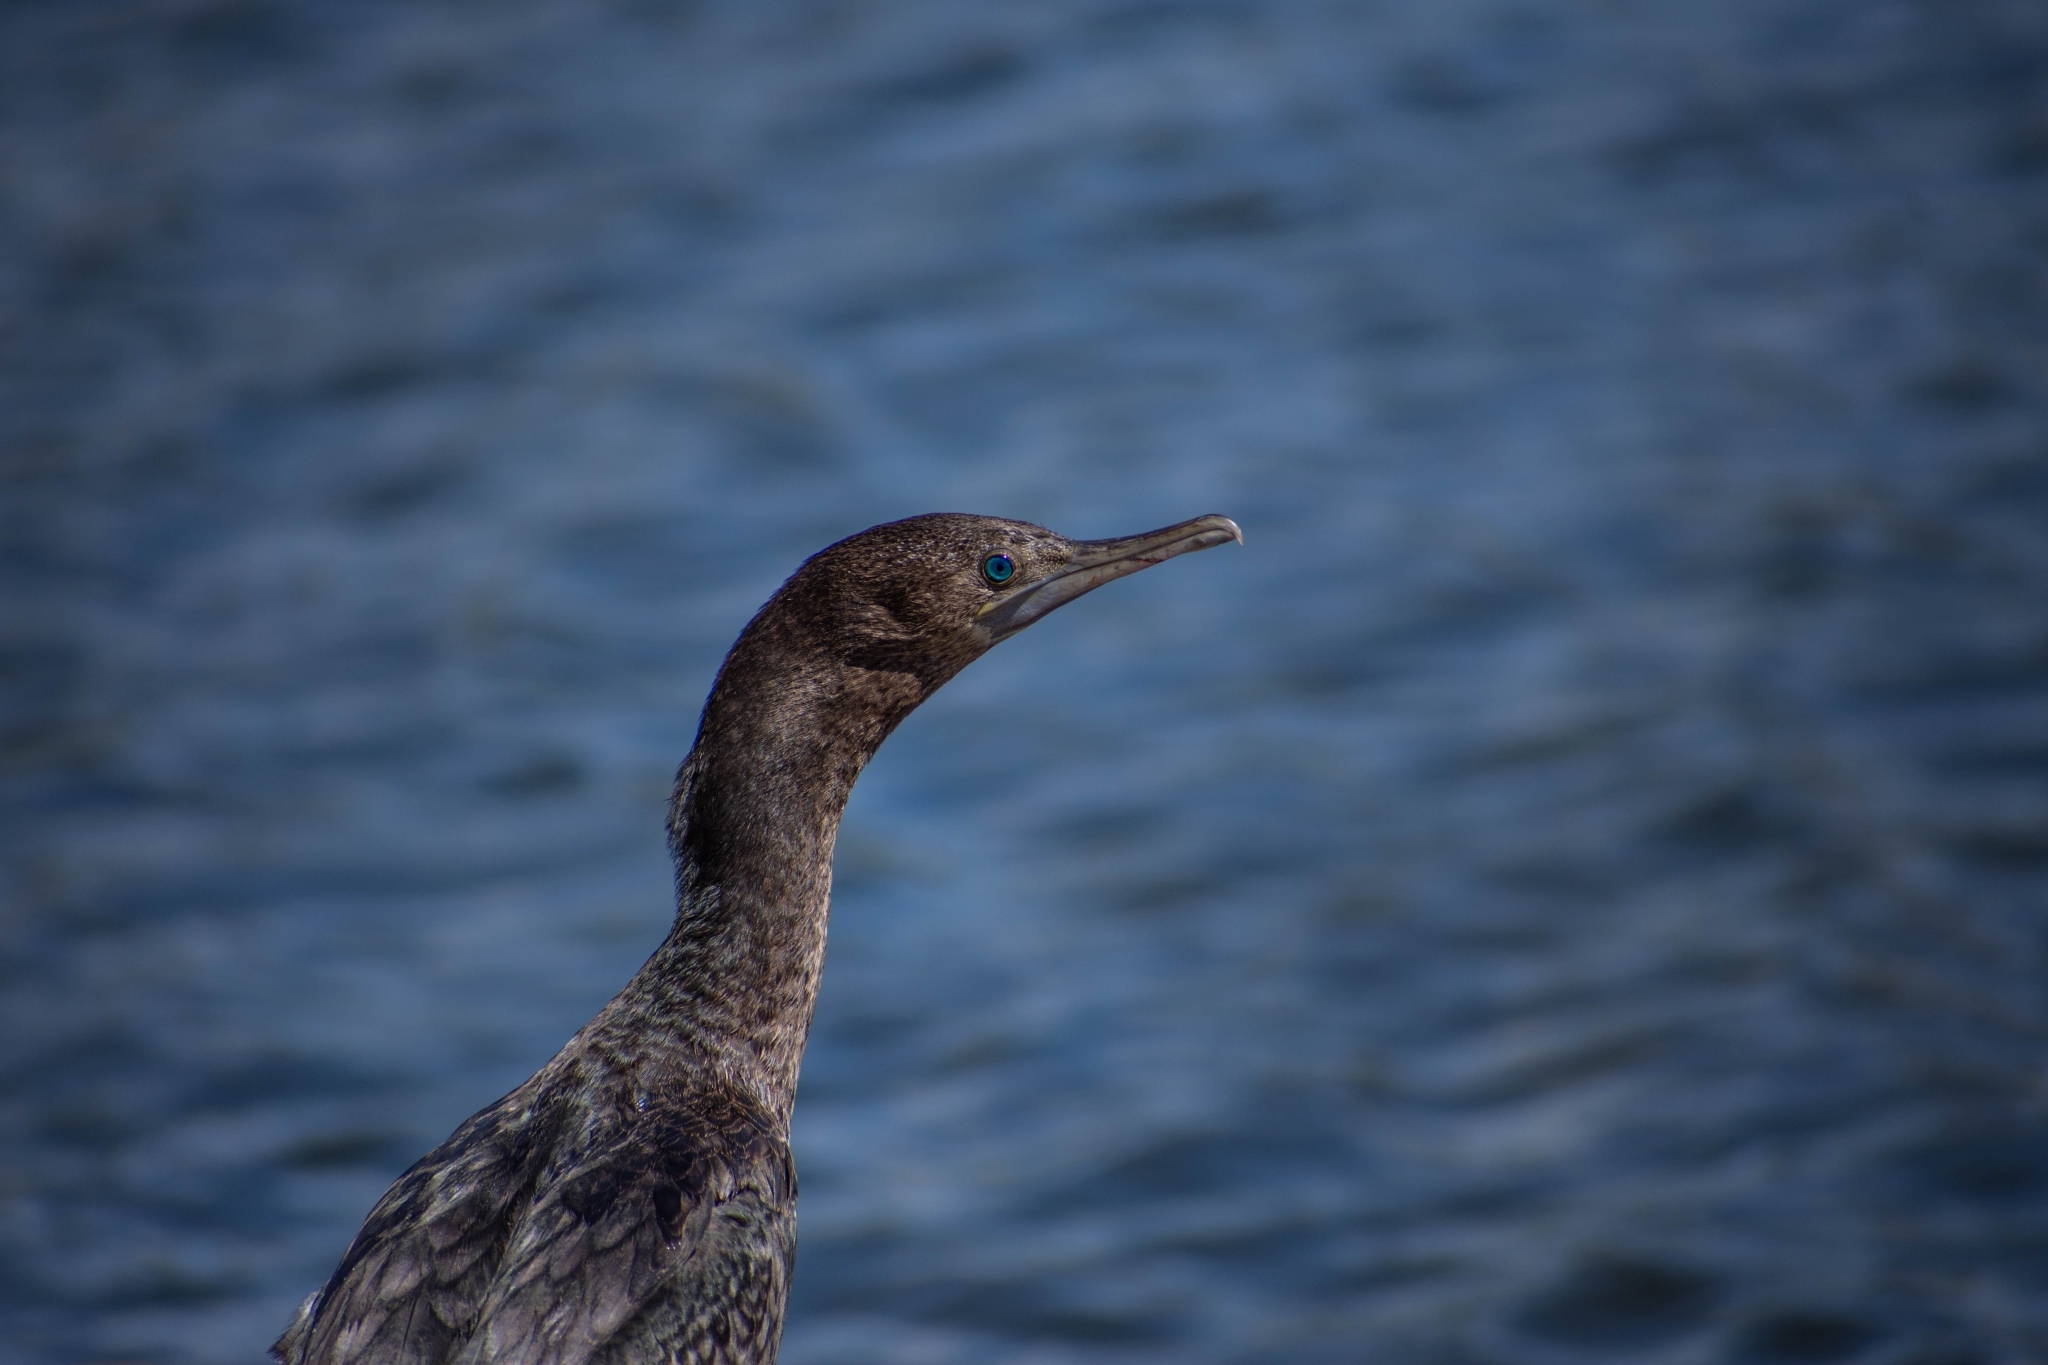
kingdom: Animalia
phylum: Chordata
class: Aves
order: Suliformes
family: Phalacrocoracidae
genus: Phalacrocorax
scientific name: Phalacrocorax sulcirostris
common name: Little black cormorant
